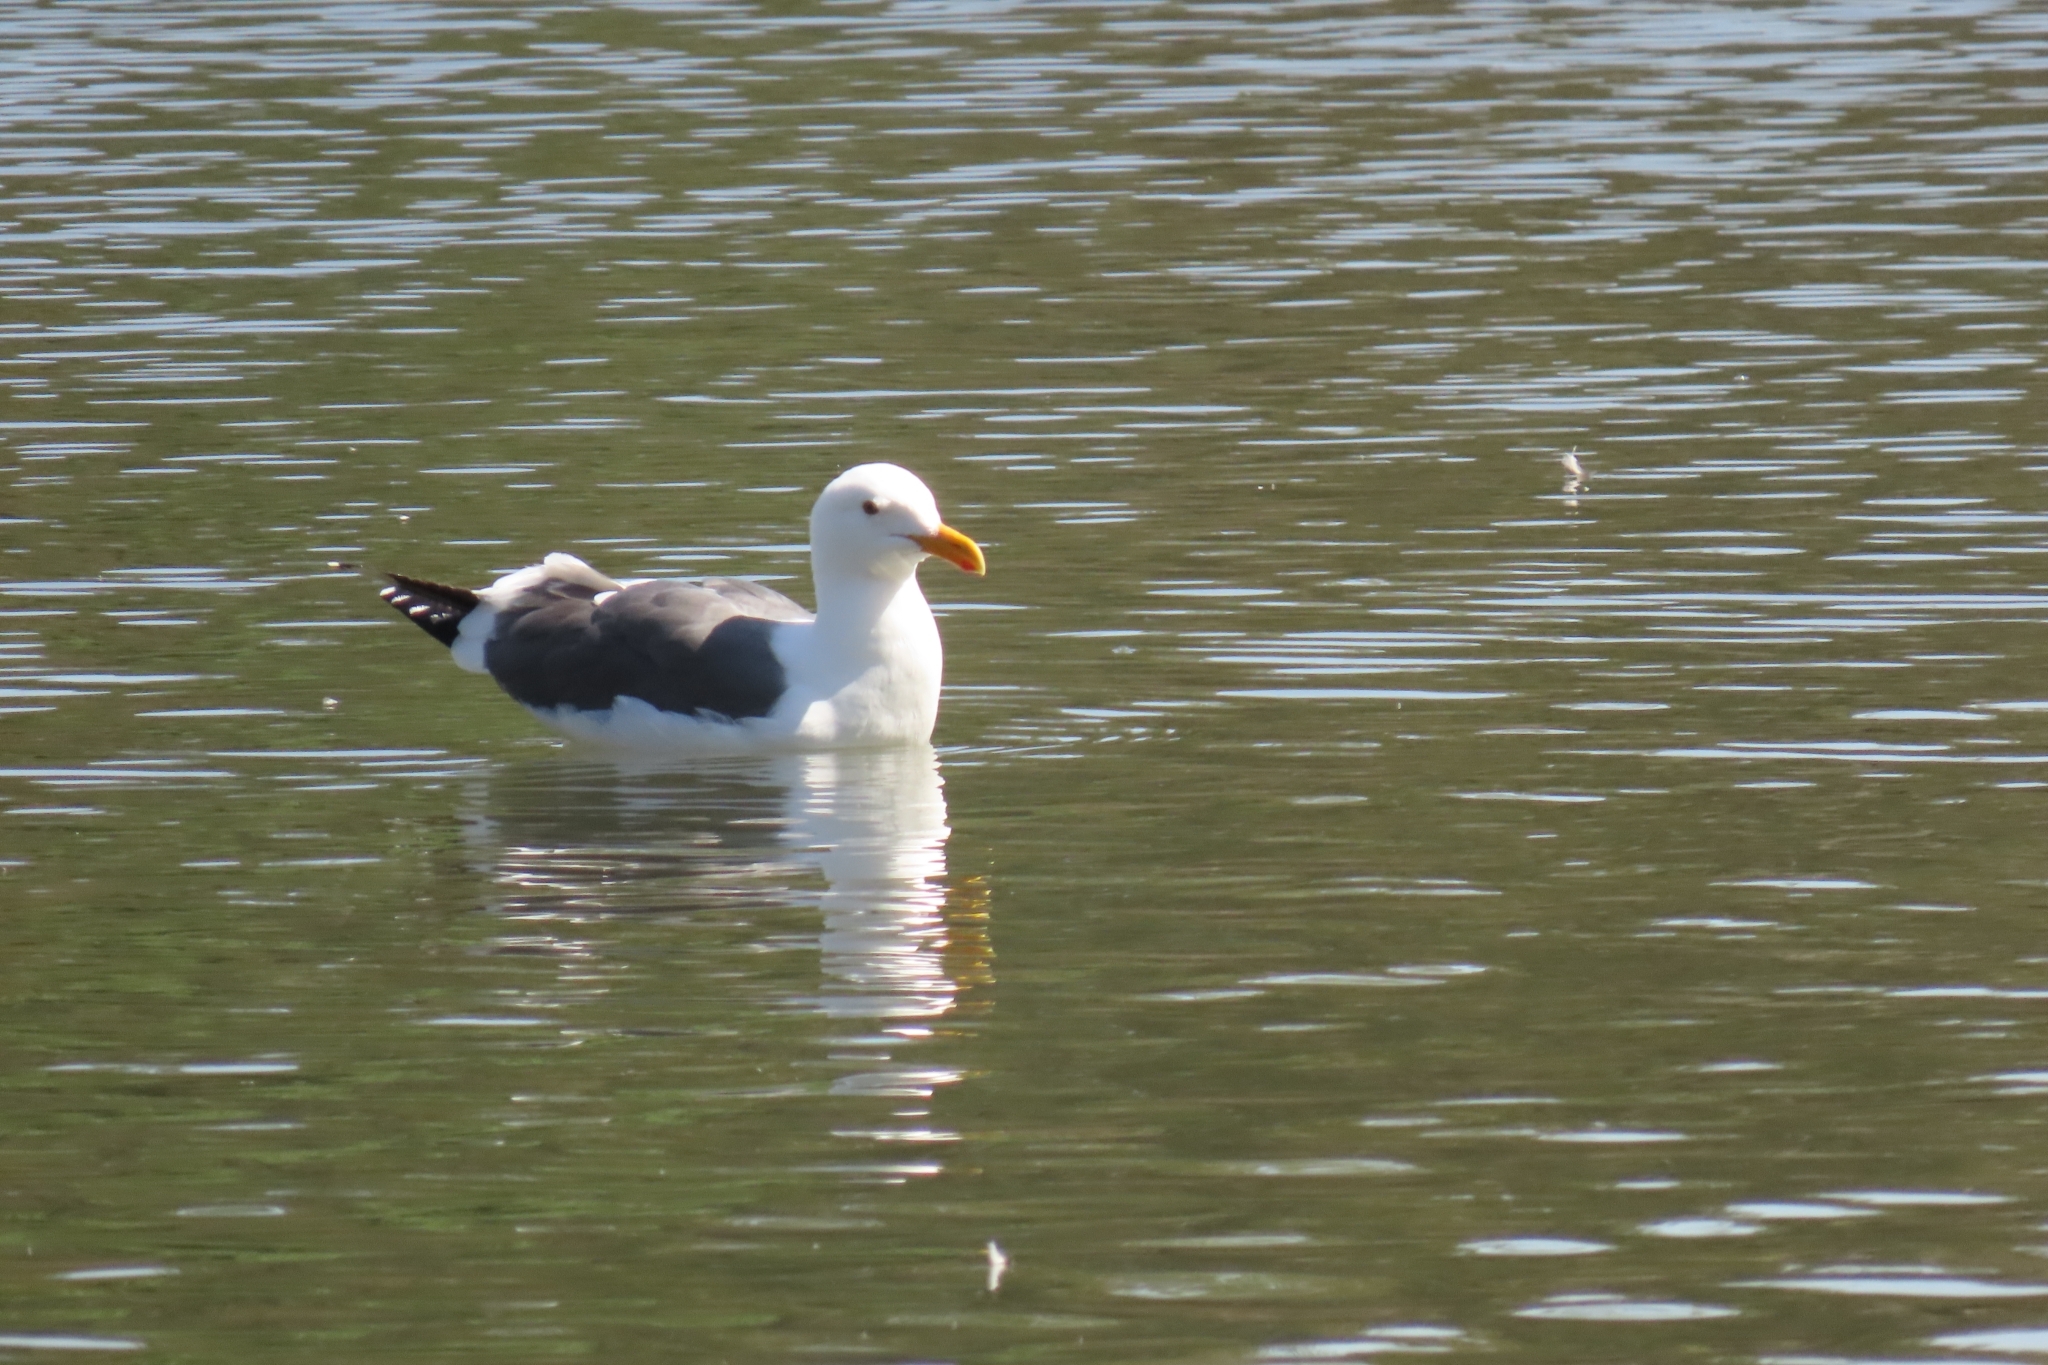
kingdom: Animalia
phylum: Chordata
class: Aves
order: Charadriiformes
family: Laridae
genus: Larus
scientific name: Larus occidentalis
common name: Western gull
